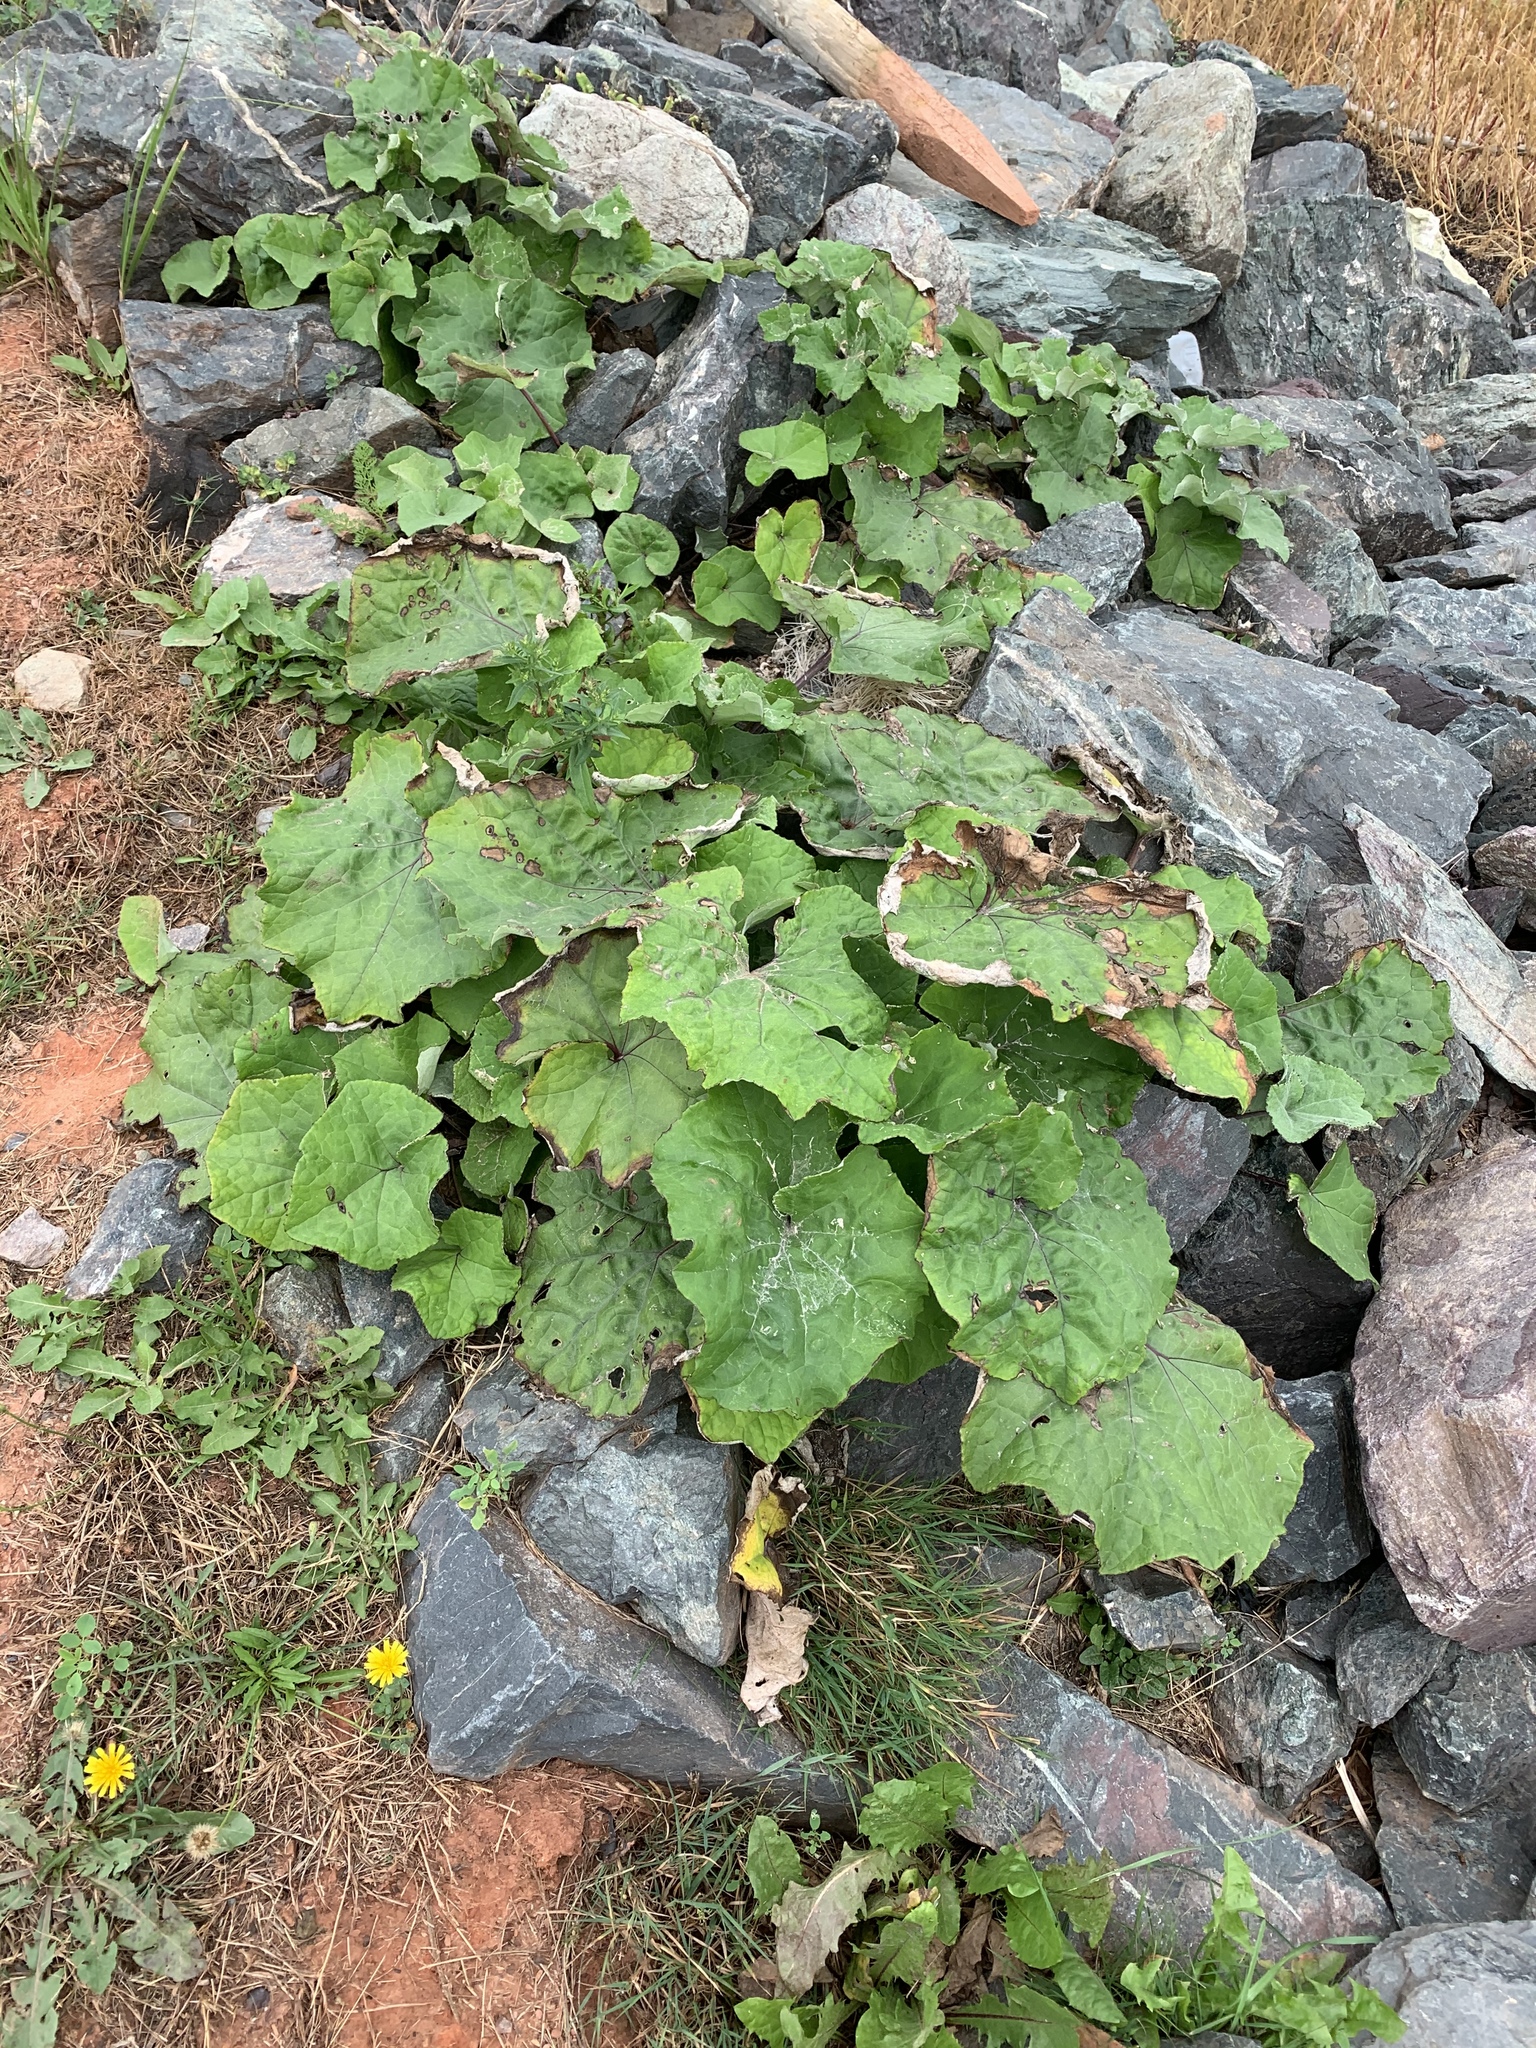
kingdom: Plantae
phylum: Tracheophyta
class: Magnoliopsida
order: Asterales
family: Asteraceae
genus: Tussilago
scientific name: Tussilago farfara
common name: Coltsfoot
